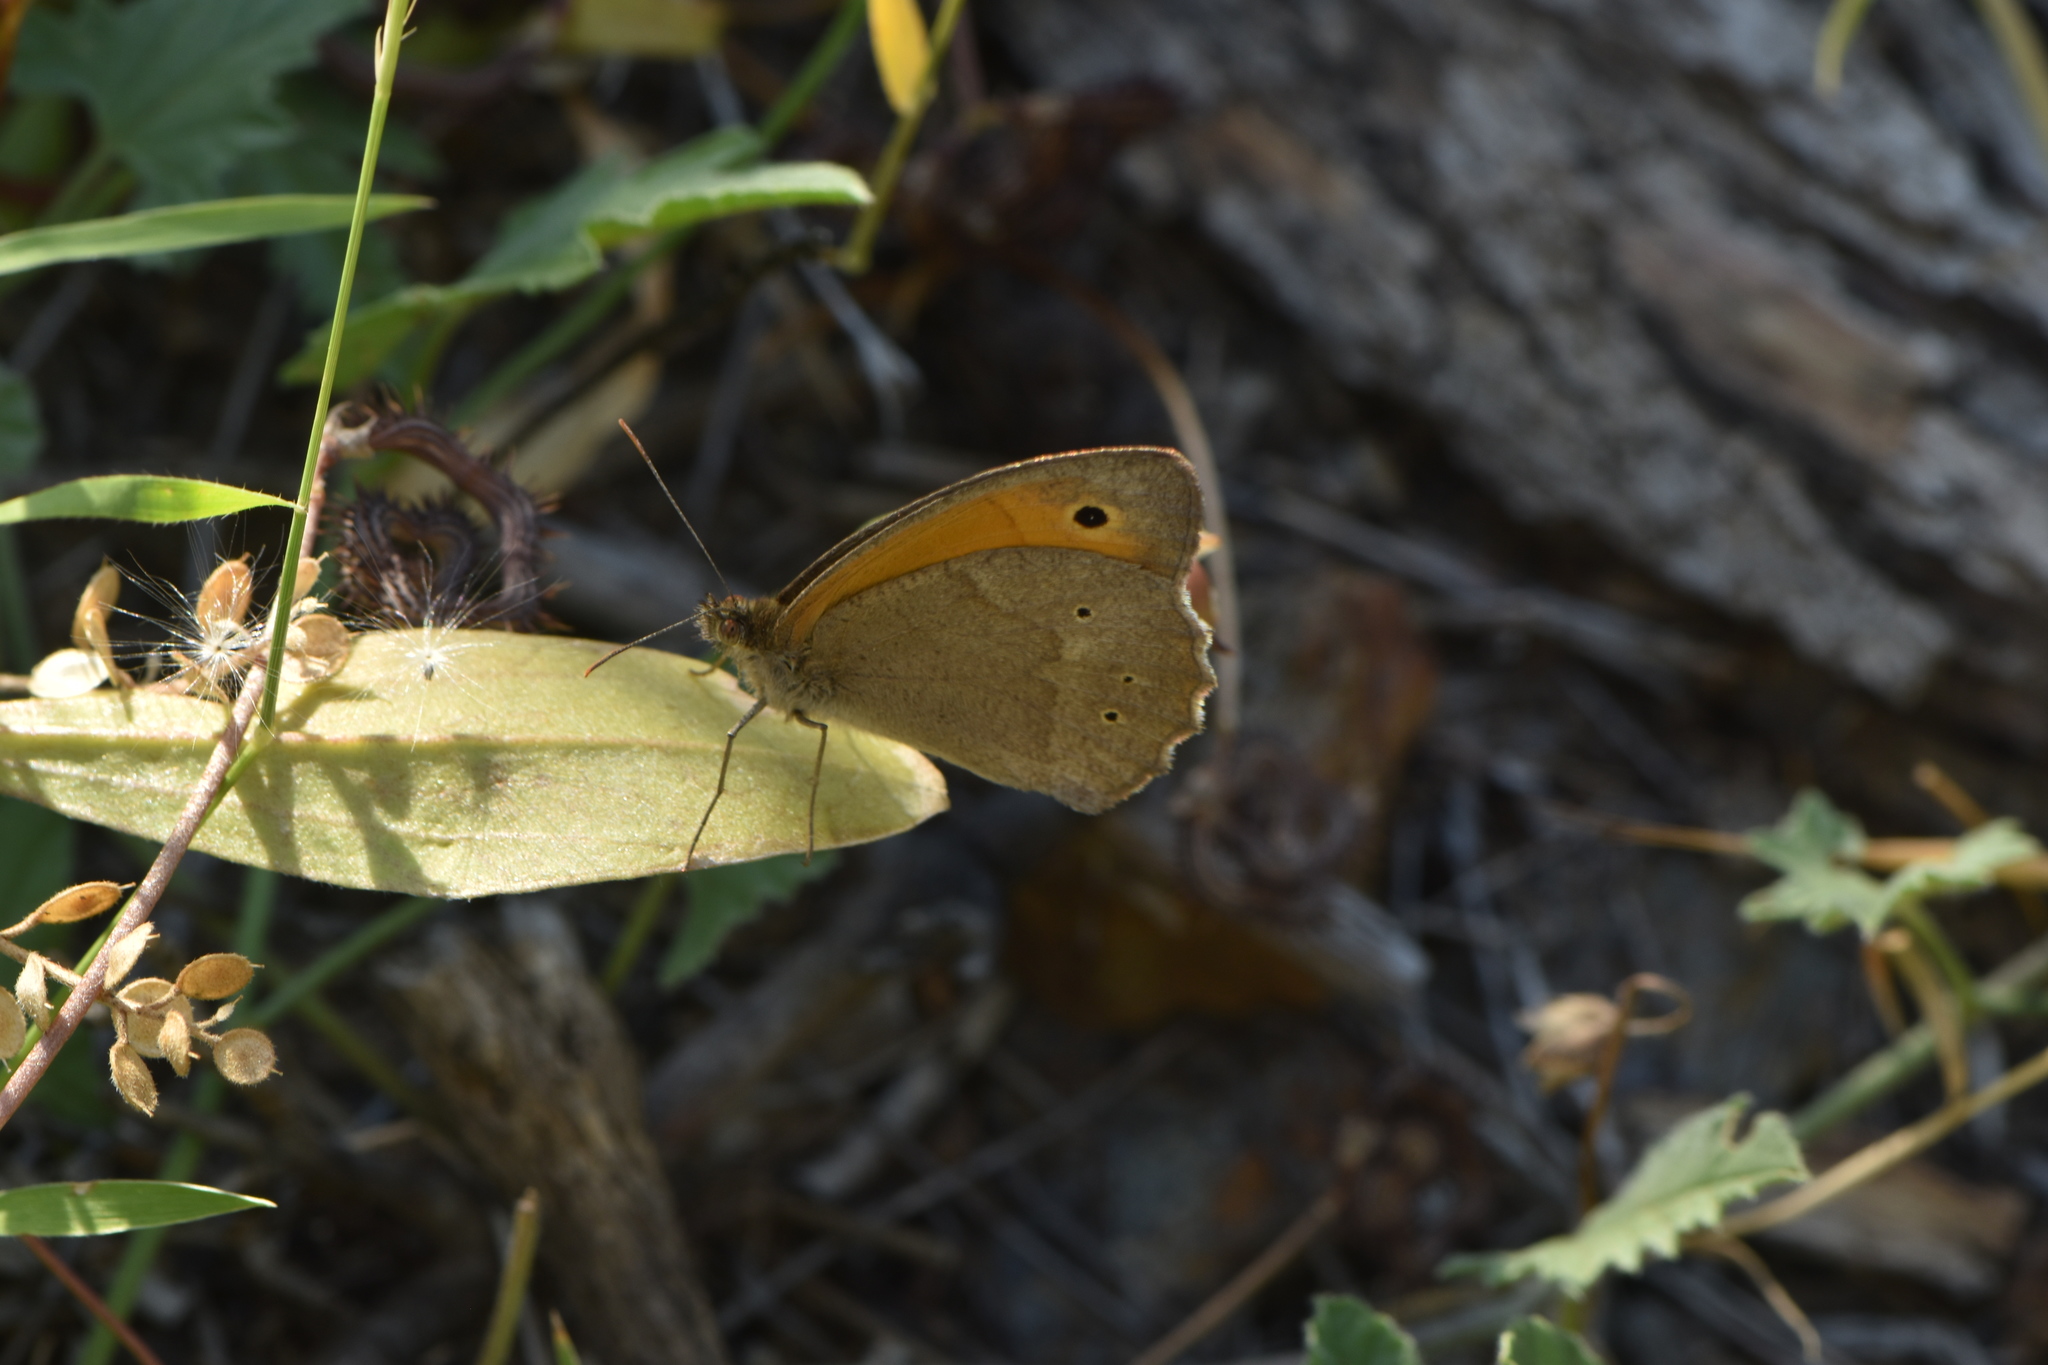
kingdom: Animalia
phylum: Arthropoda
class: Insecta
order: Lepidoptera
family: Nymphalidae
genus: Maniola
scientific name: Maniola jurtina
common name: Meadow brown
